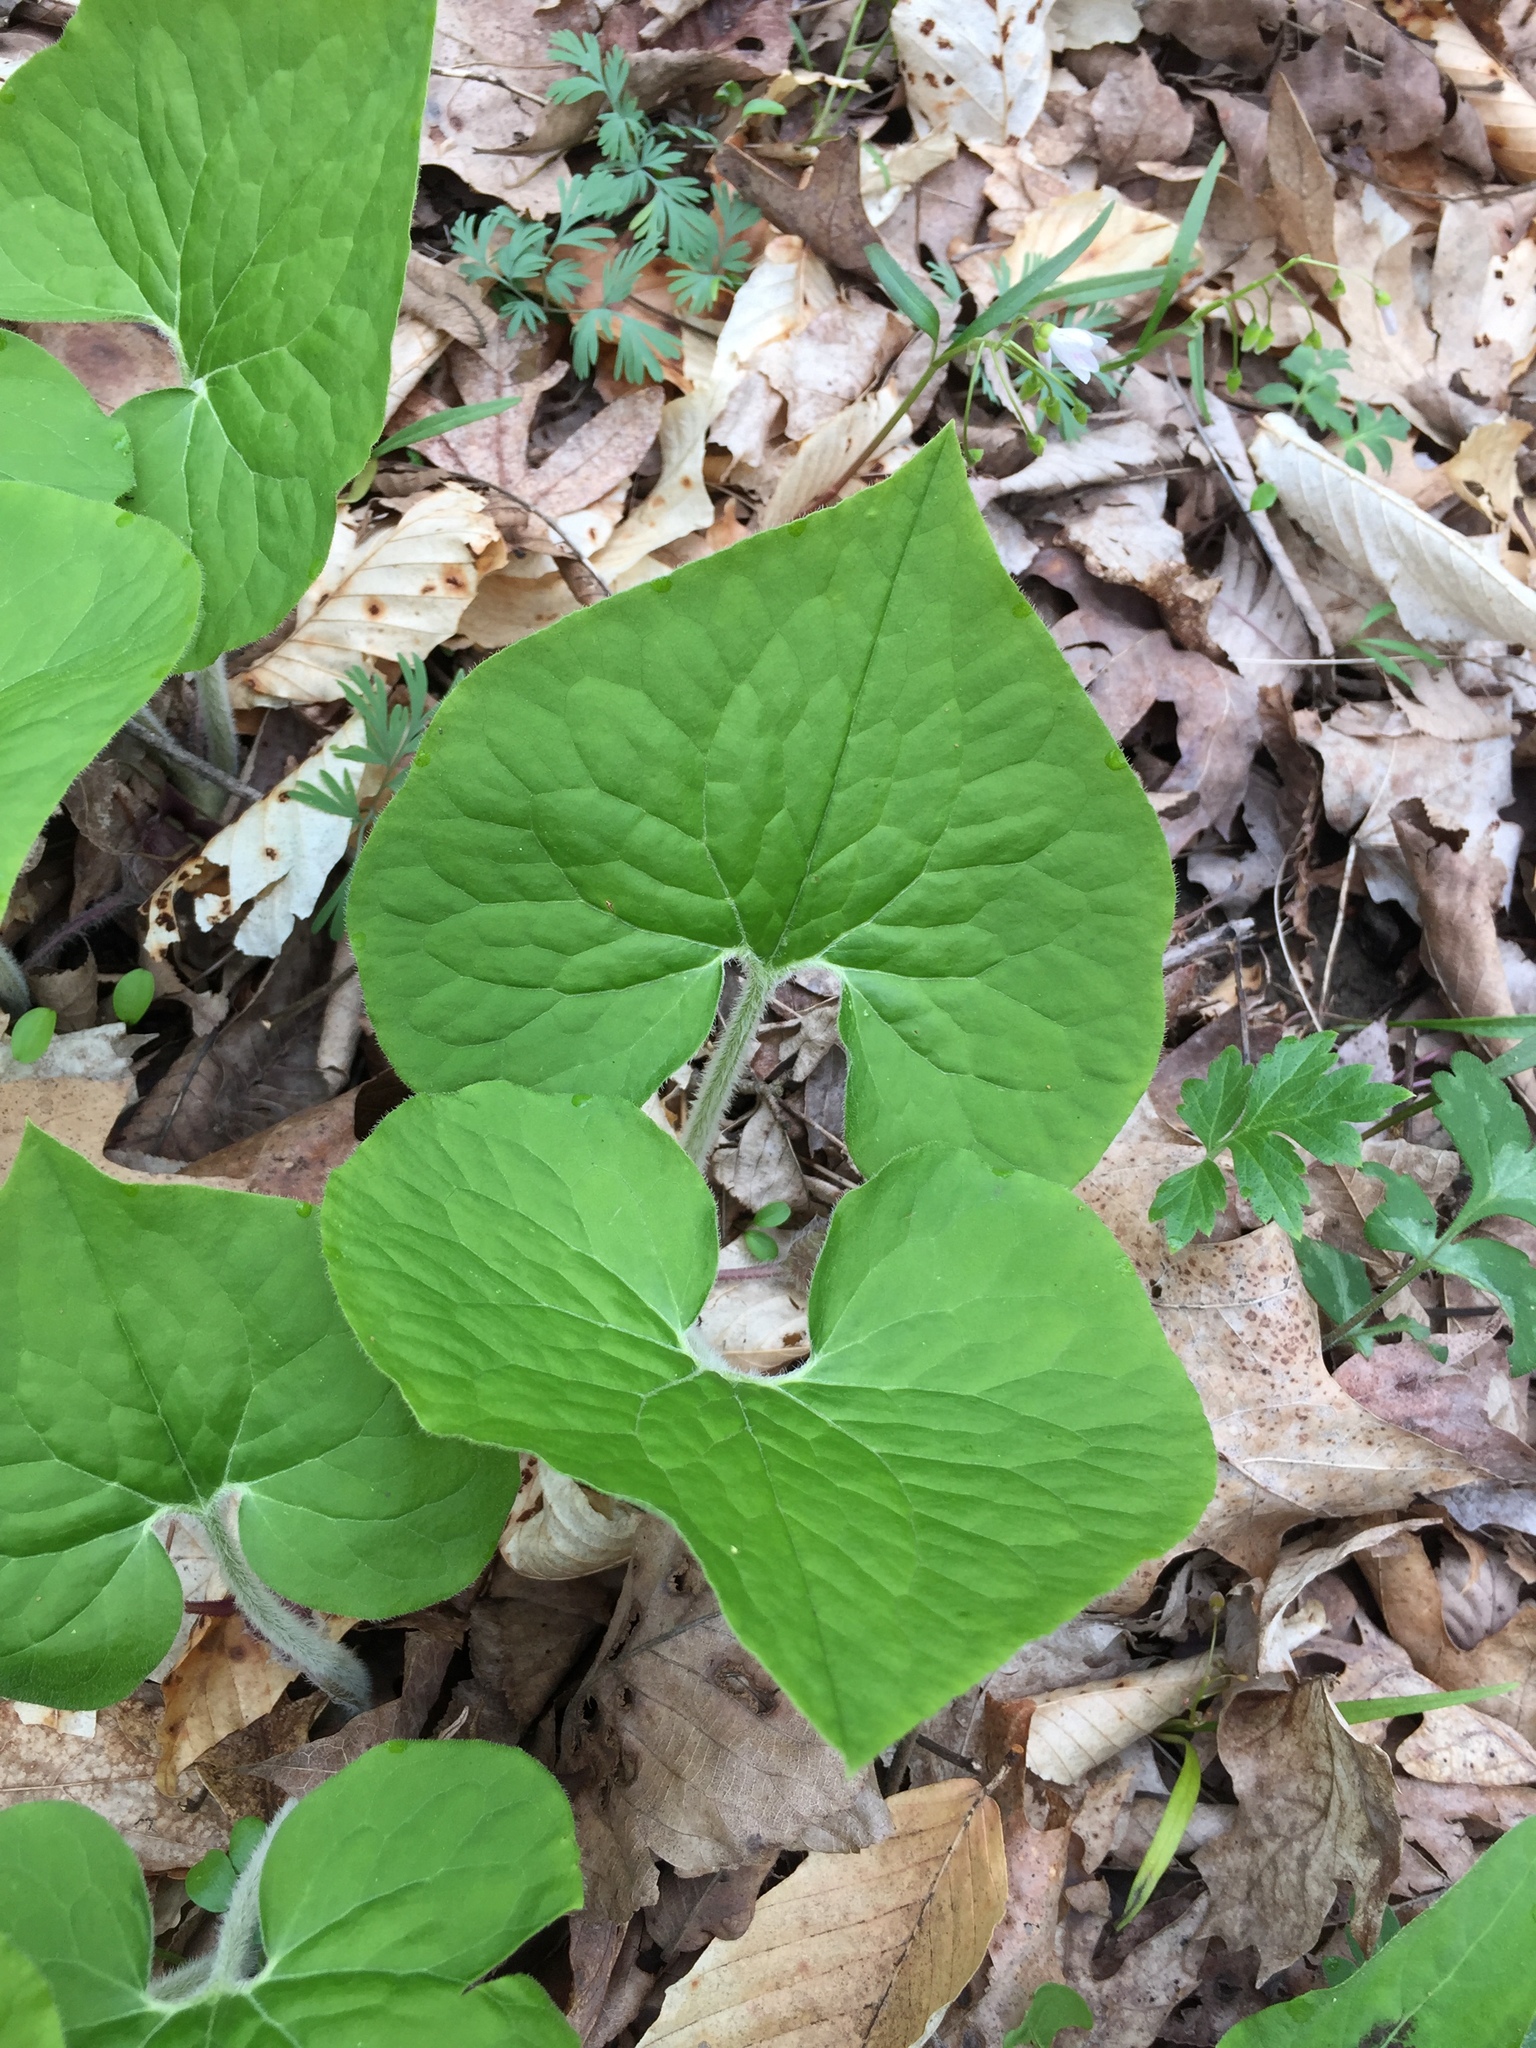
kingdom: Plantae
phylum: Tracheophyta
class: Magnoliopsida
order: Piperales
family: Aristolochiaceae
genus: Asarum
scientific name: Asarum canadense
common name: Wild ginger
